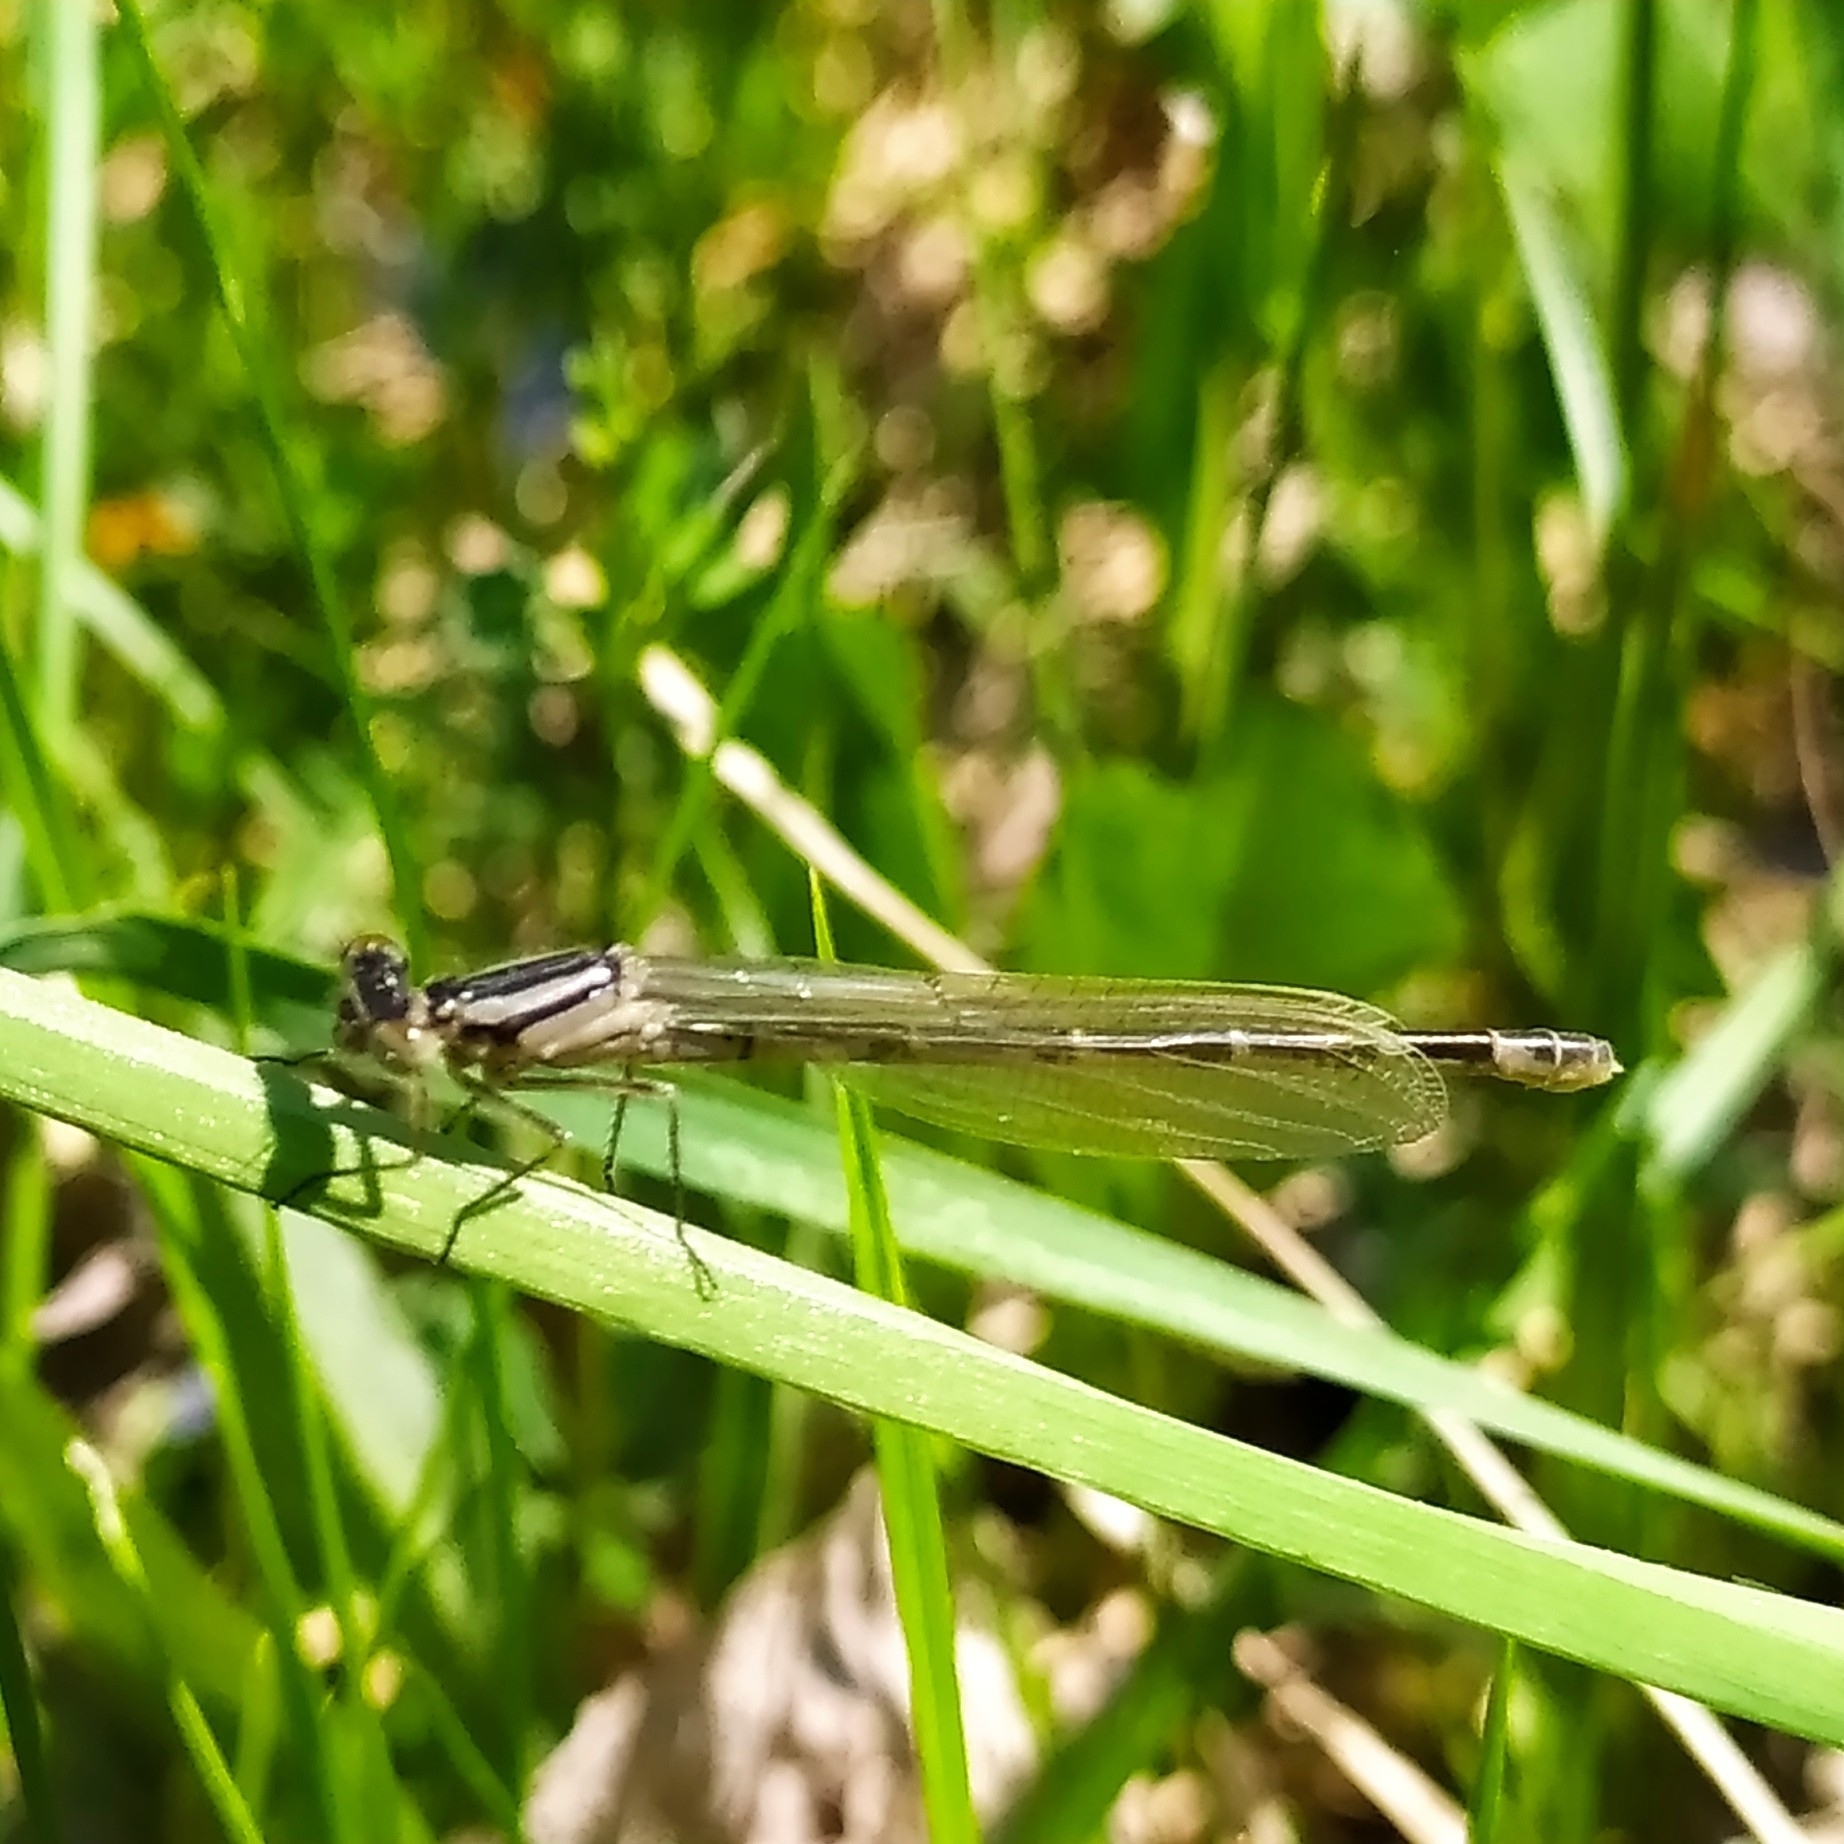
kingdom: Animalia
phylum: Arthropoda
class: Insecta
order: Odonata
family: Coenagrionidae
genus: Enallagma
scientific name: Enallagma cyathigerum
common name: Common blue damselfly
